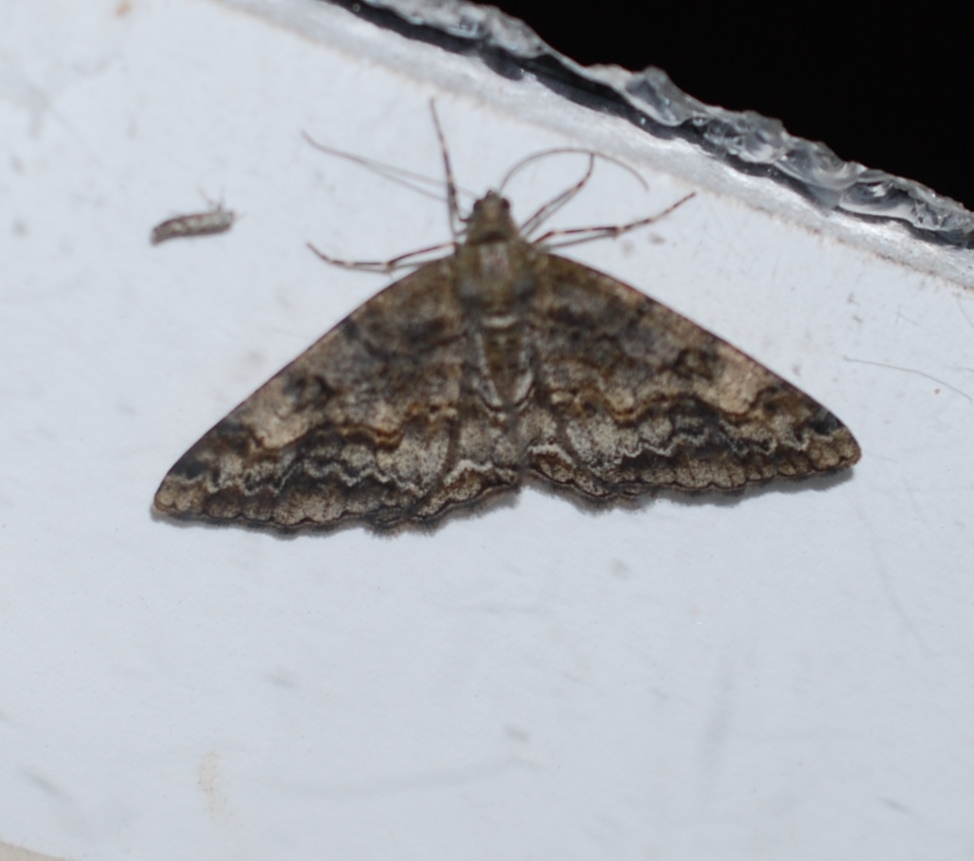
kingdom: Animalia
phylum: Arthropoda
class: Insecta
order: Lepidoptera
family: Geometridae
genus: Alcis
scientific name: Alcis repandata
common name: Mottled beauty
